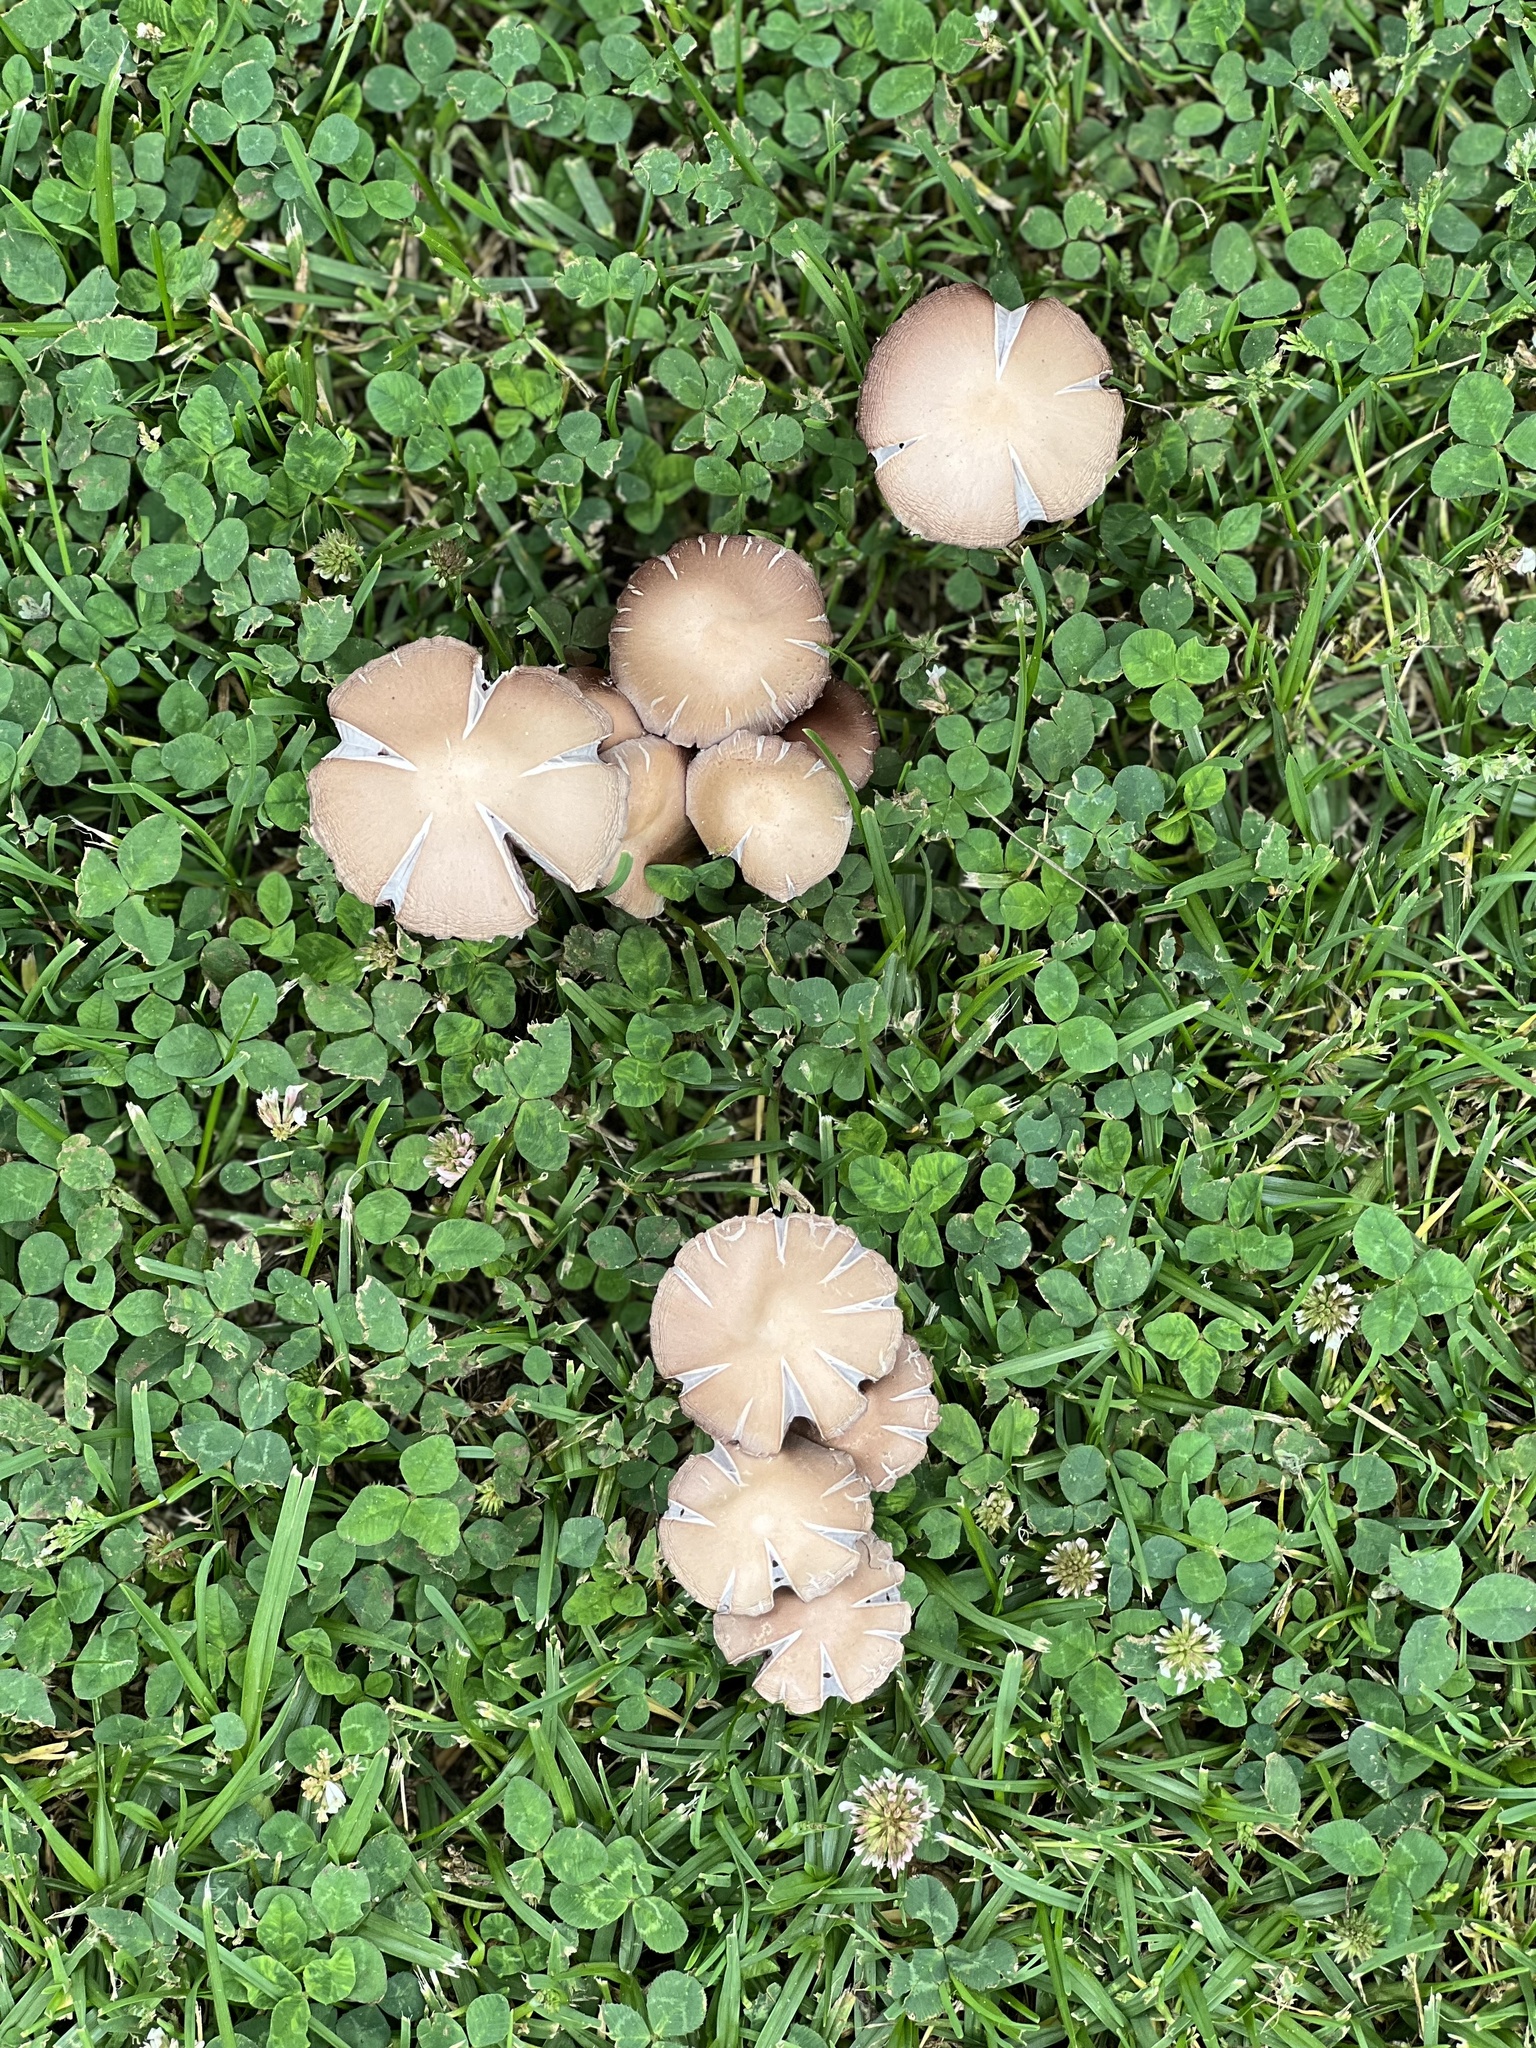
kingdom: Fungi
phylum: Basidiomycota
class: Agaricomycetes
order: Agaricales
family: Psathyrellaceae
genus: Candolleomyces
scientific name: Candolleomyces candolleanus
